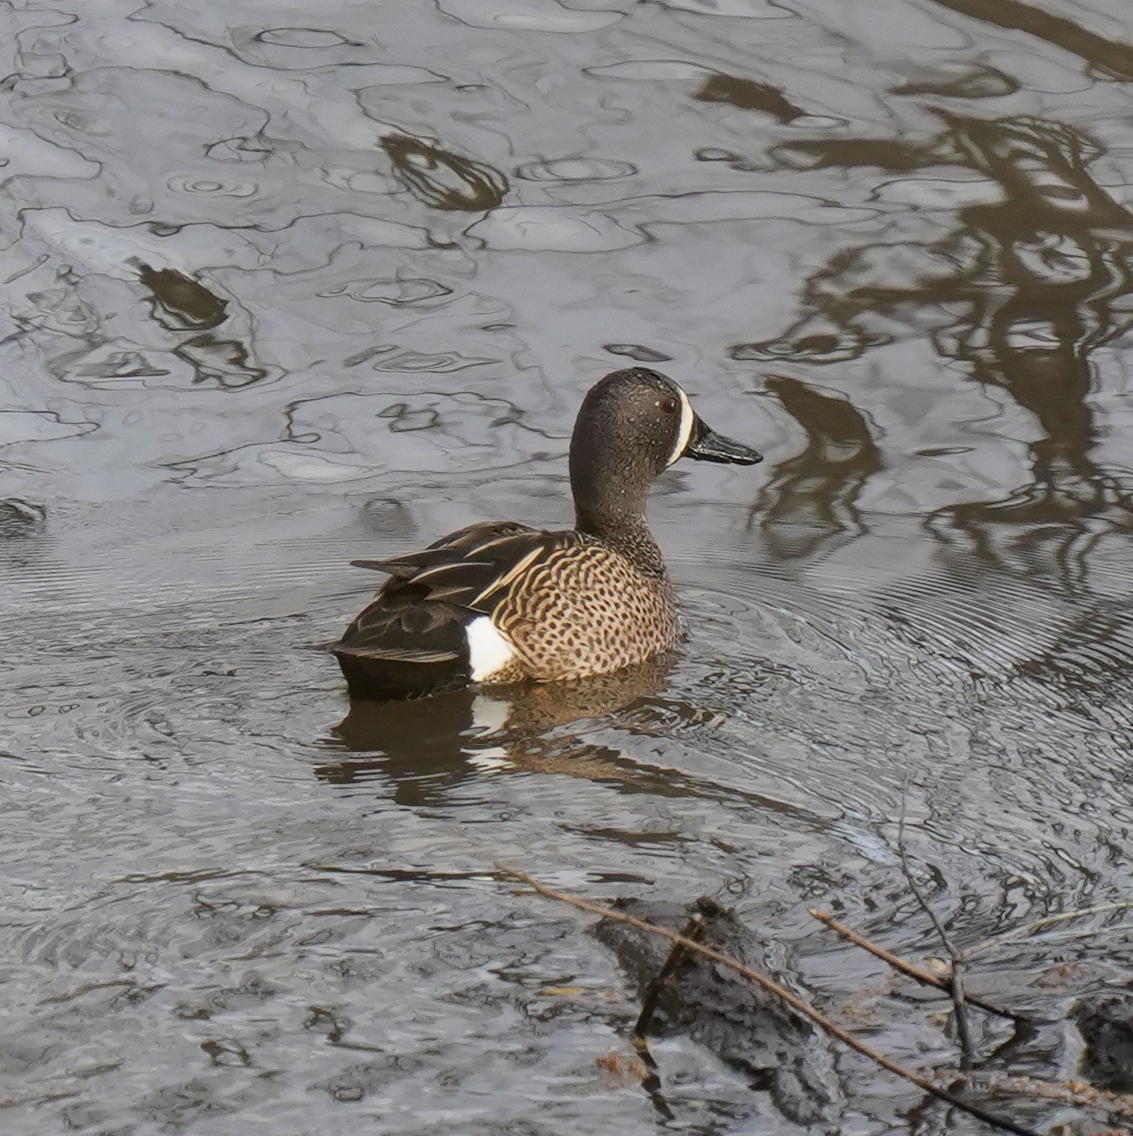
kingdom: Animalia
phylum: Chordata
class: Aves
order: Anseriformes
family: Anatidae
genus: Spatula
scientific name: Spatula discors
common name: Blue-winged teal
